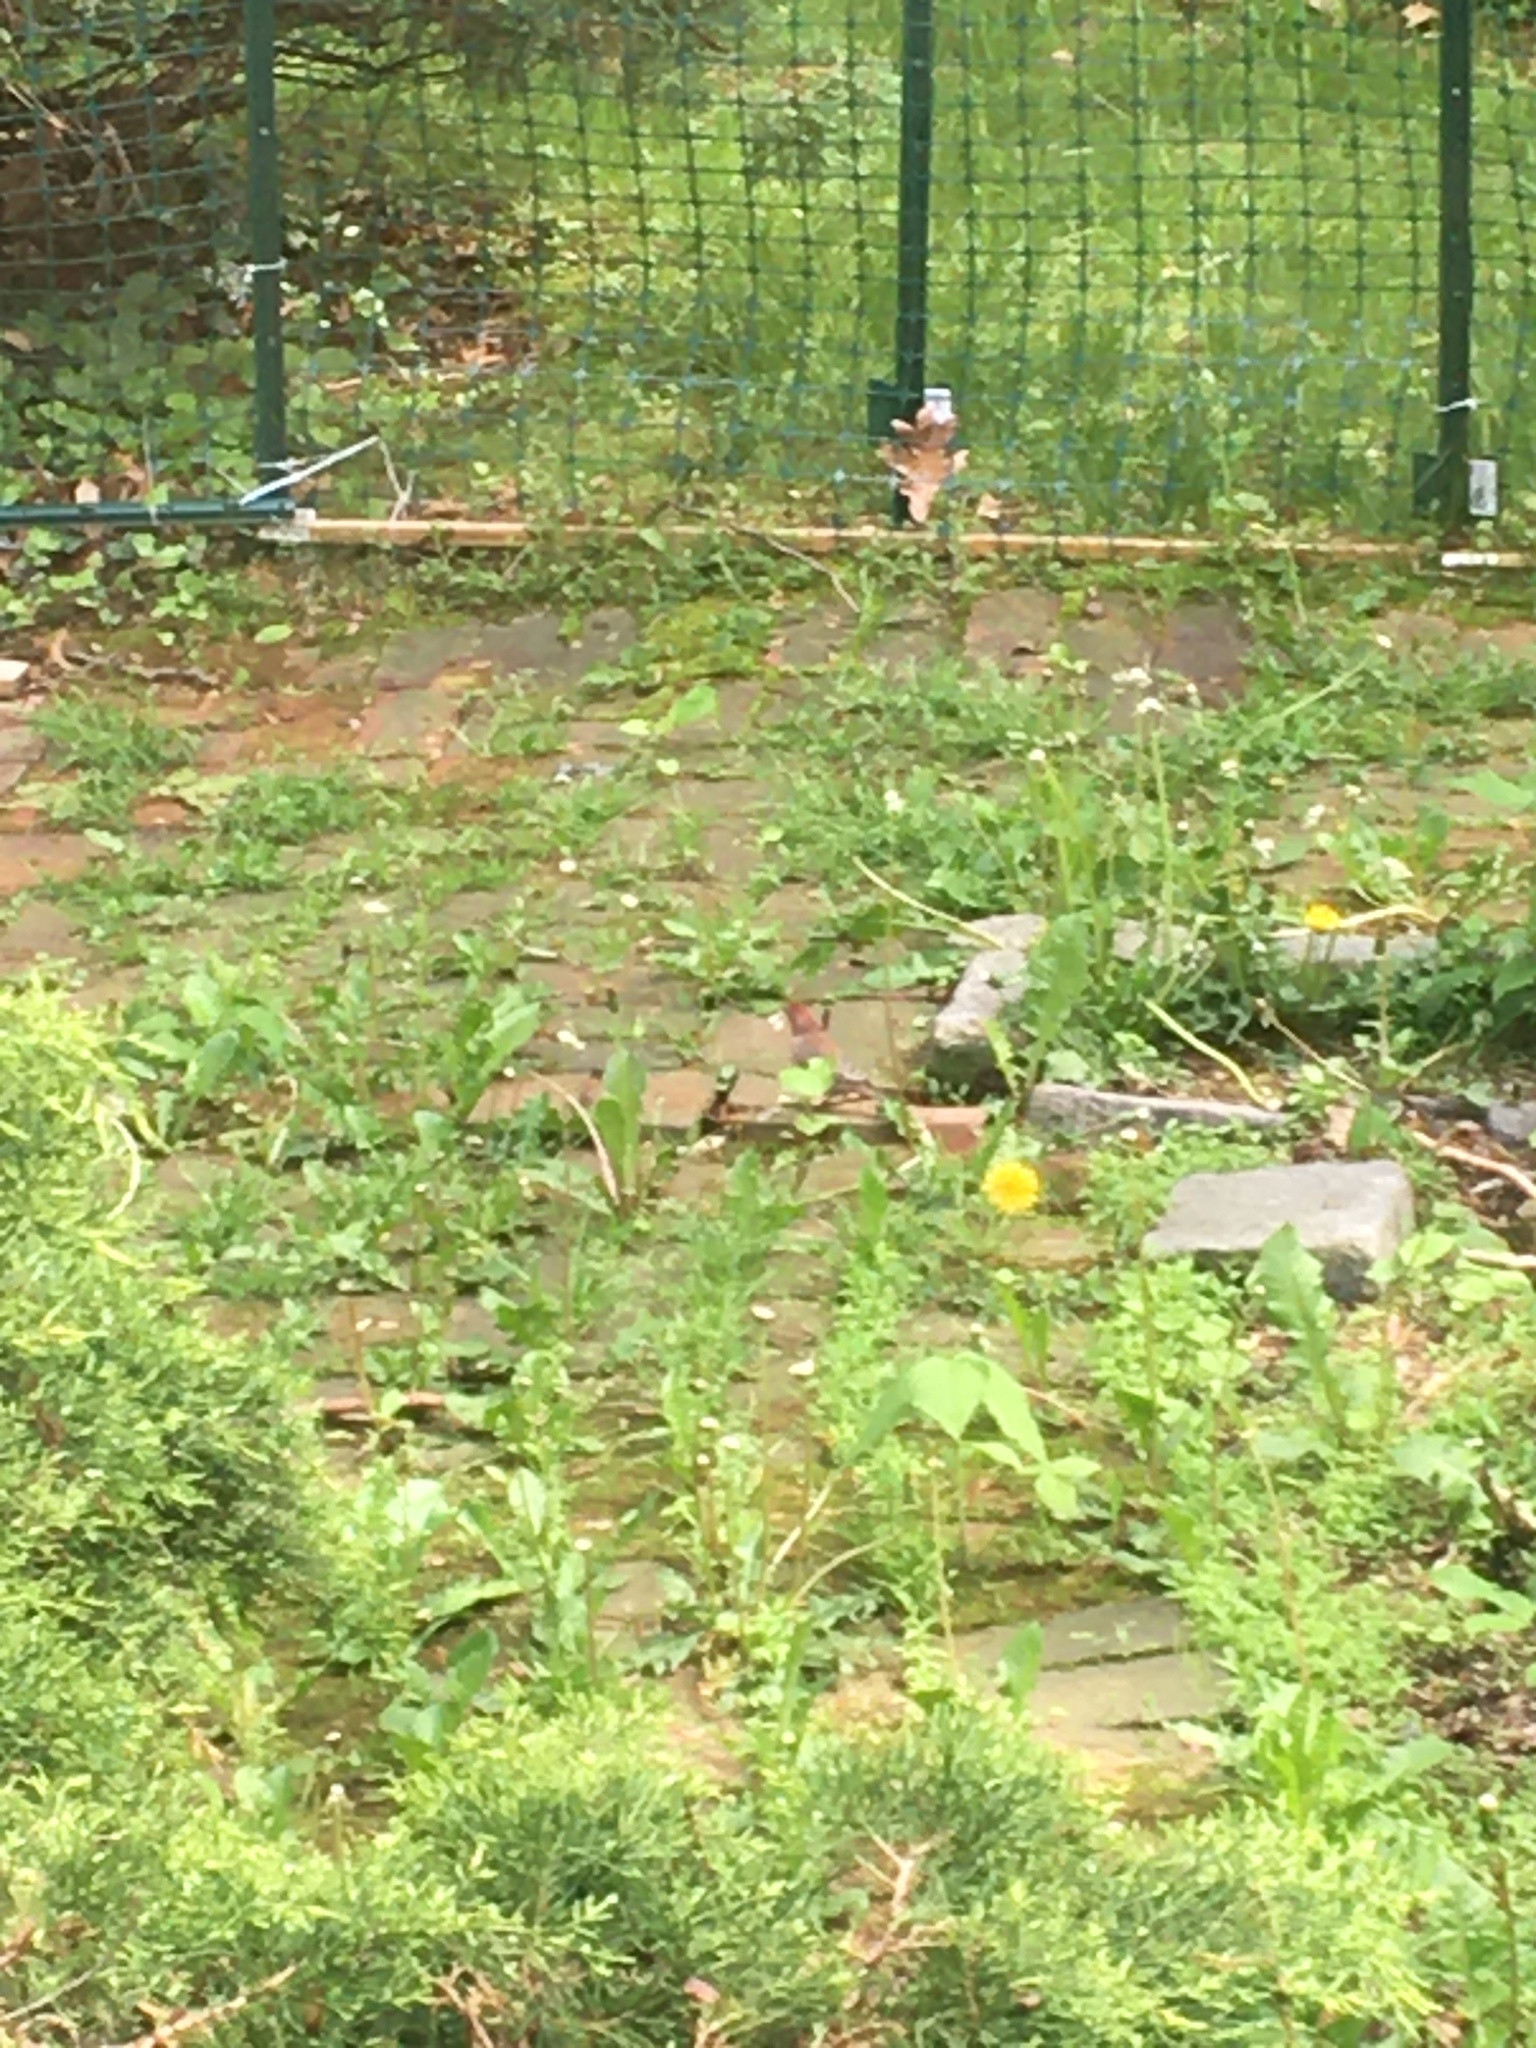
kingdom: Animalia
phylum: Chordata
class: Aves
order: Passeriformes
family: Fringillidae
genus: Haemorhous
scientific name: Haemorhous mexicanus
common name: House finch
